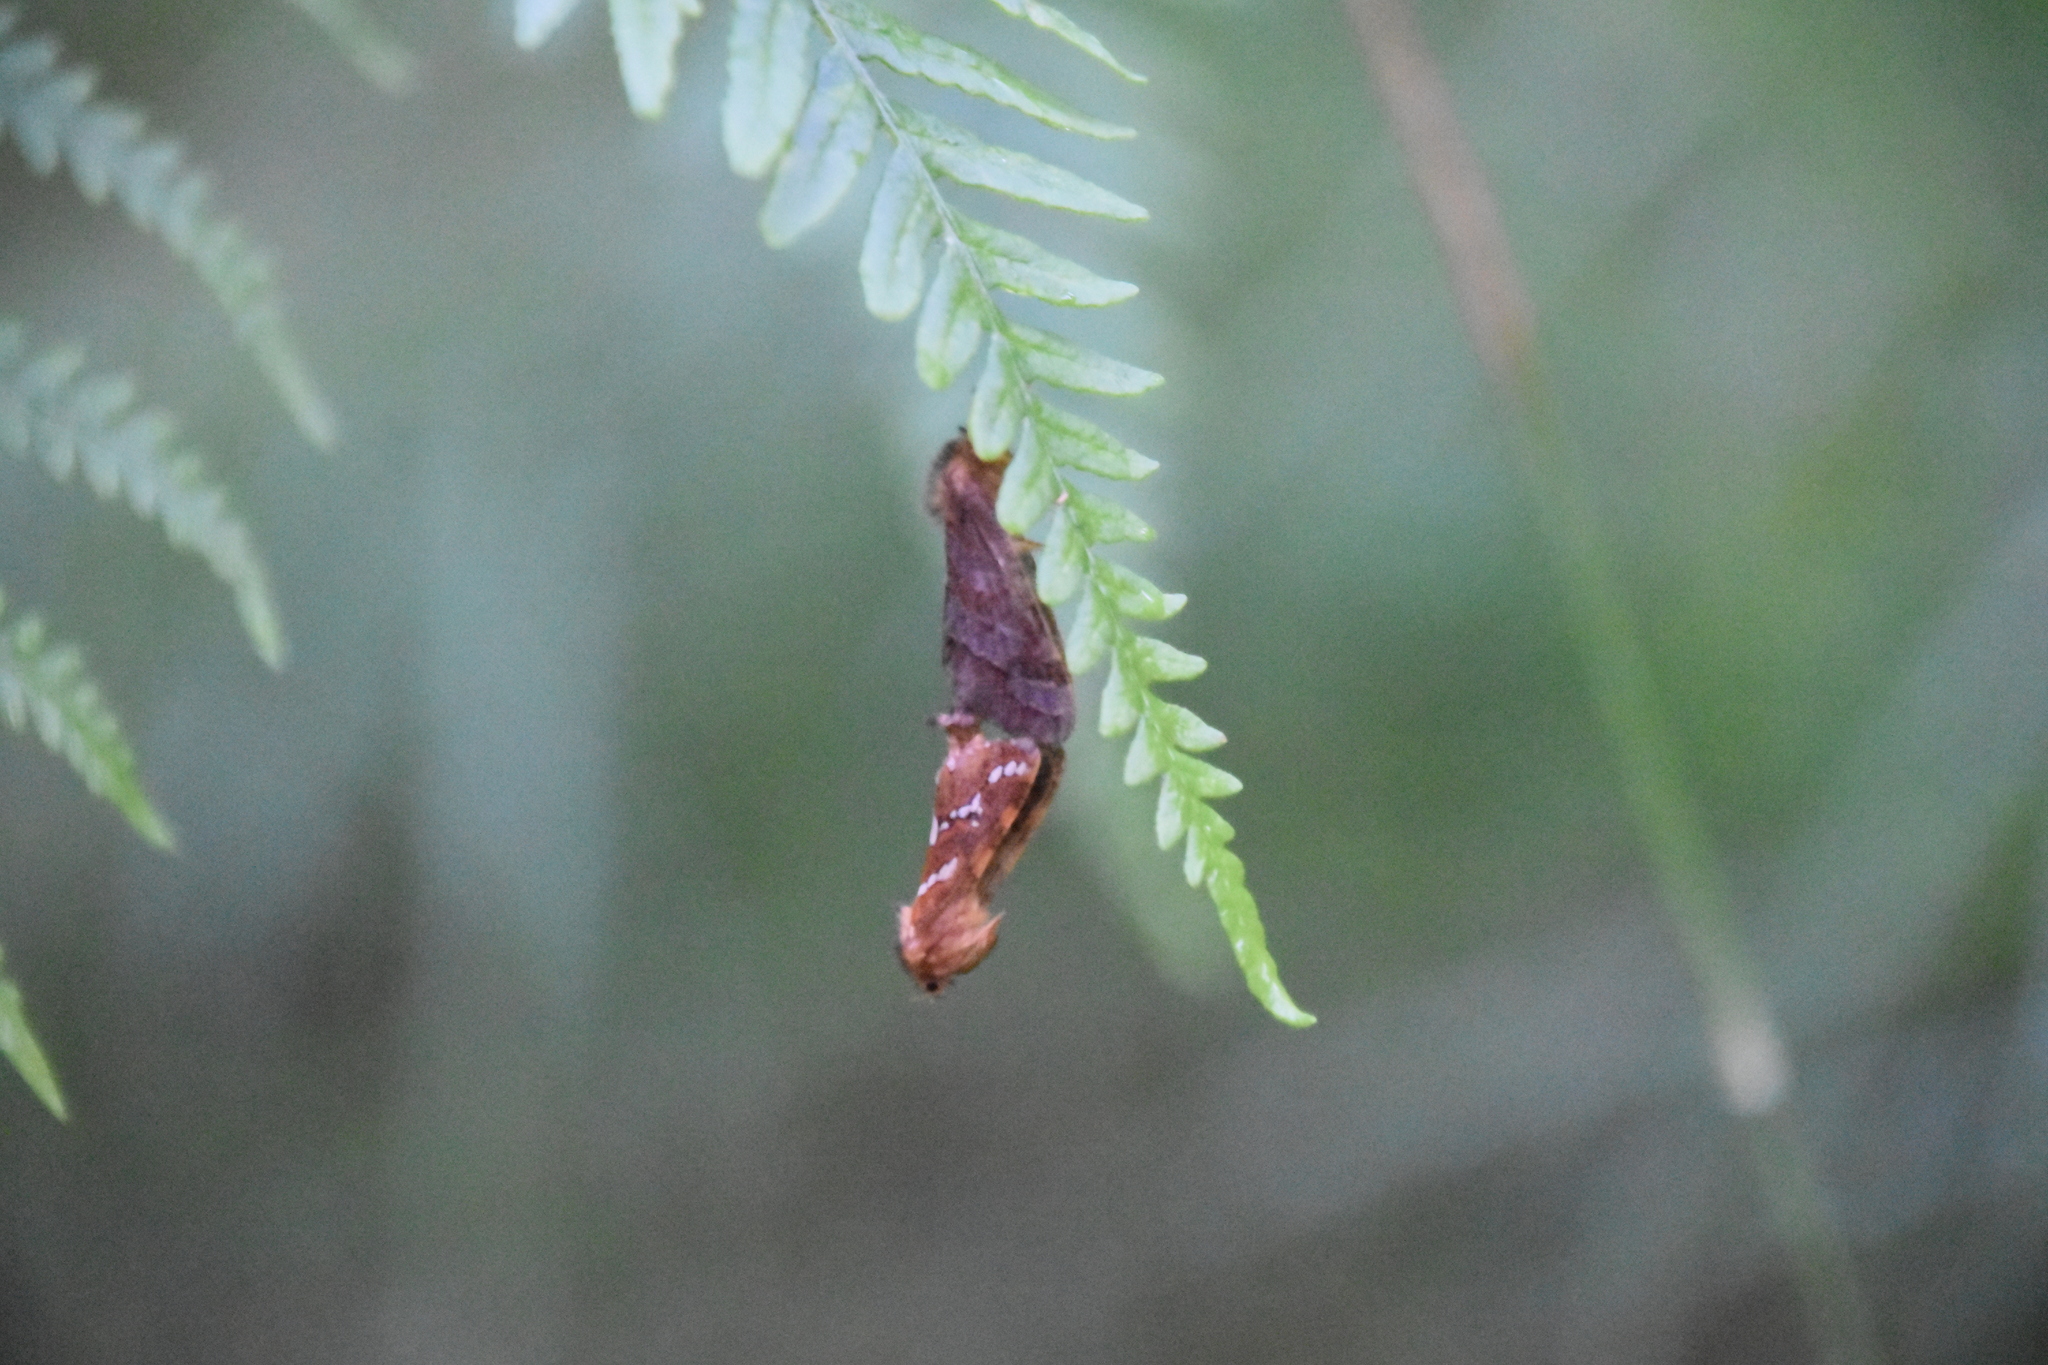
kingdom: Animalia
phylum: Arthropoda
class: Insecta
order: Lepidoptera
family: Hepialidae
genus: Phymatopus
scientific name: Phymatopus hecta
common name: Gold swift
